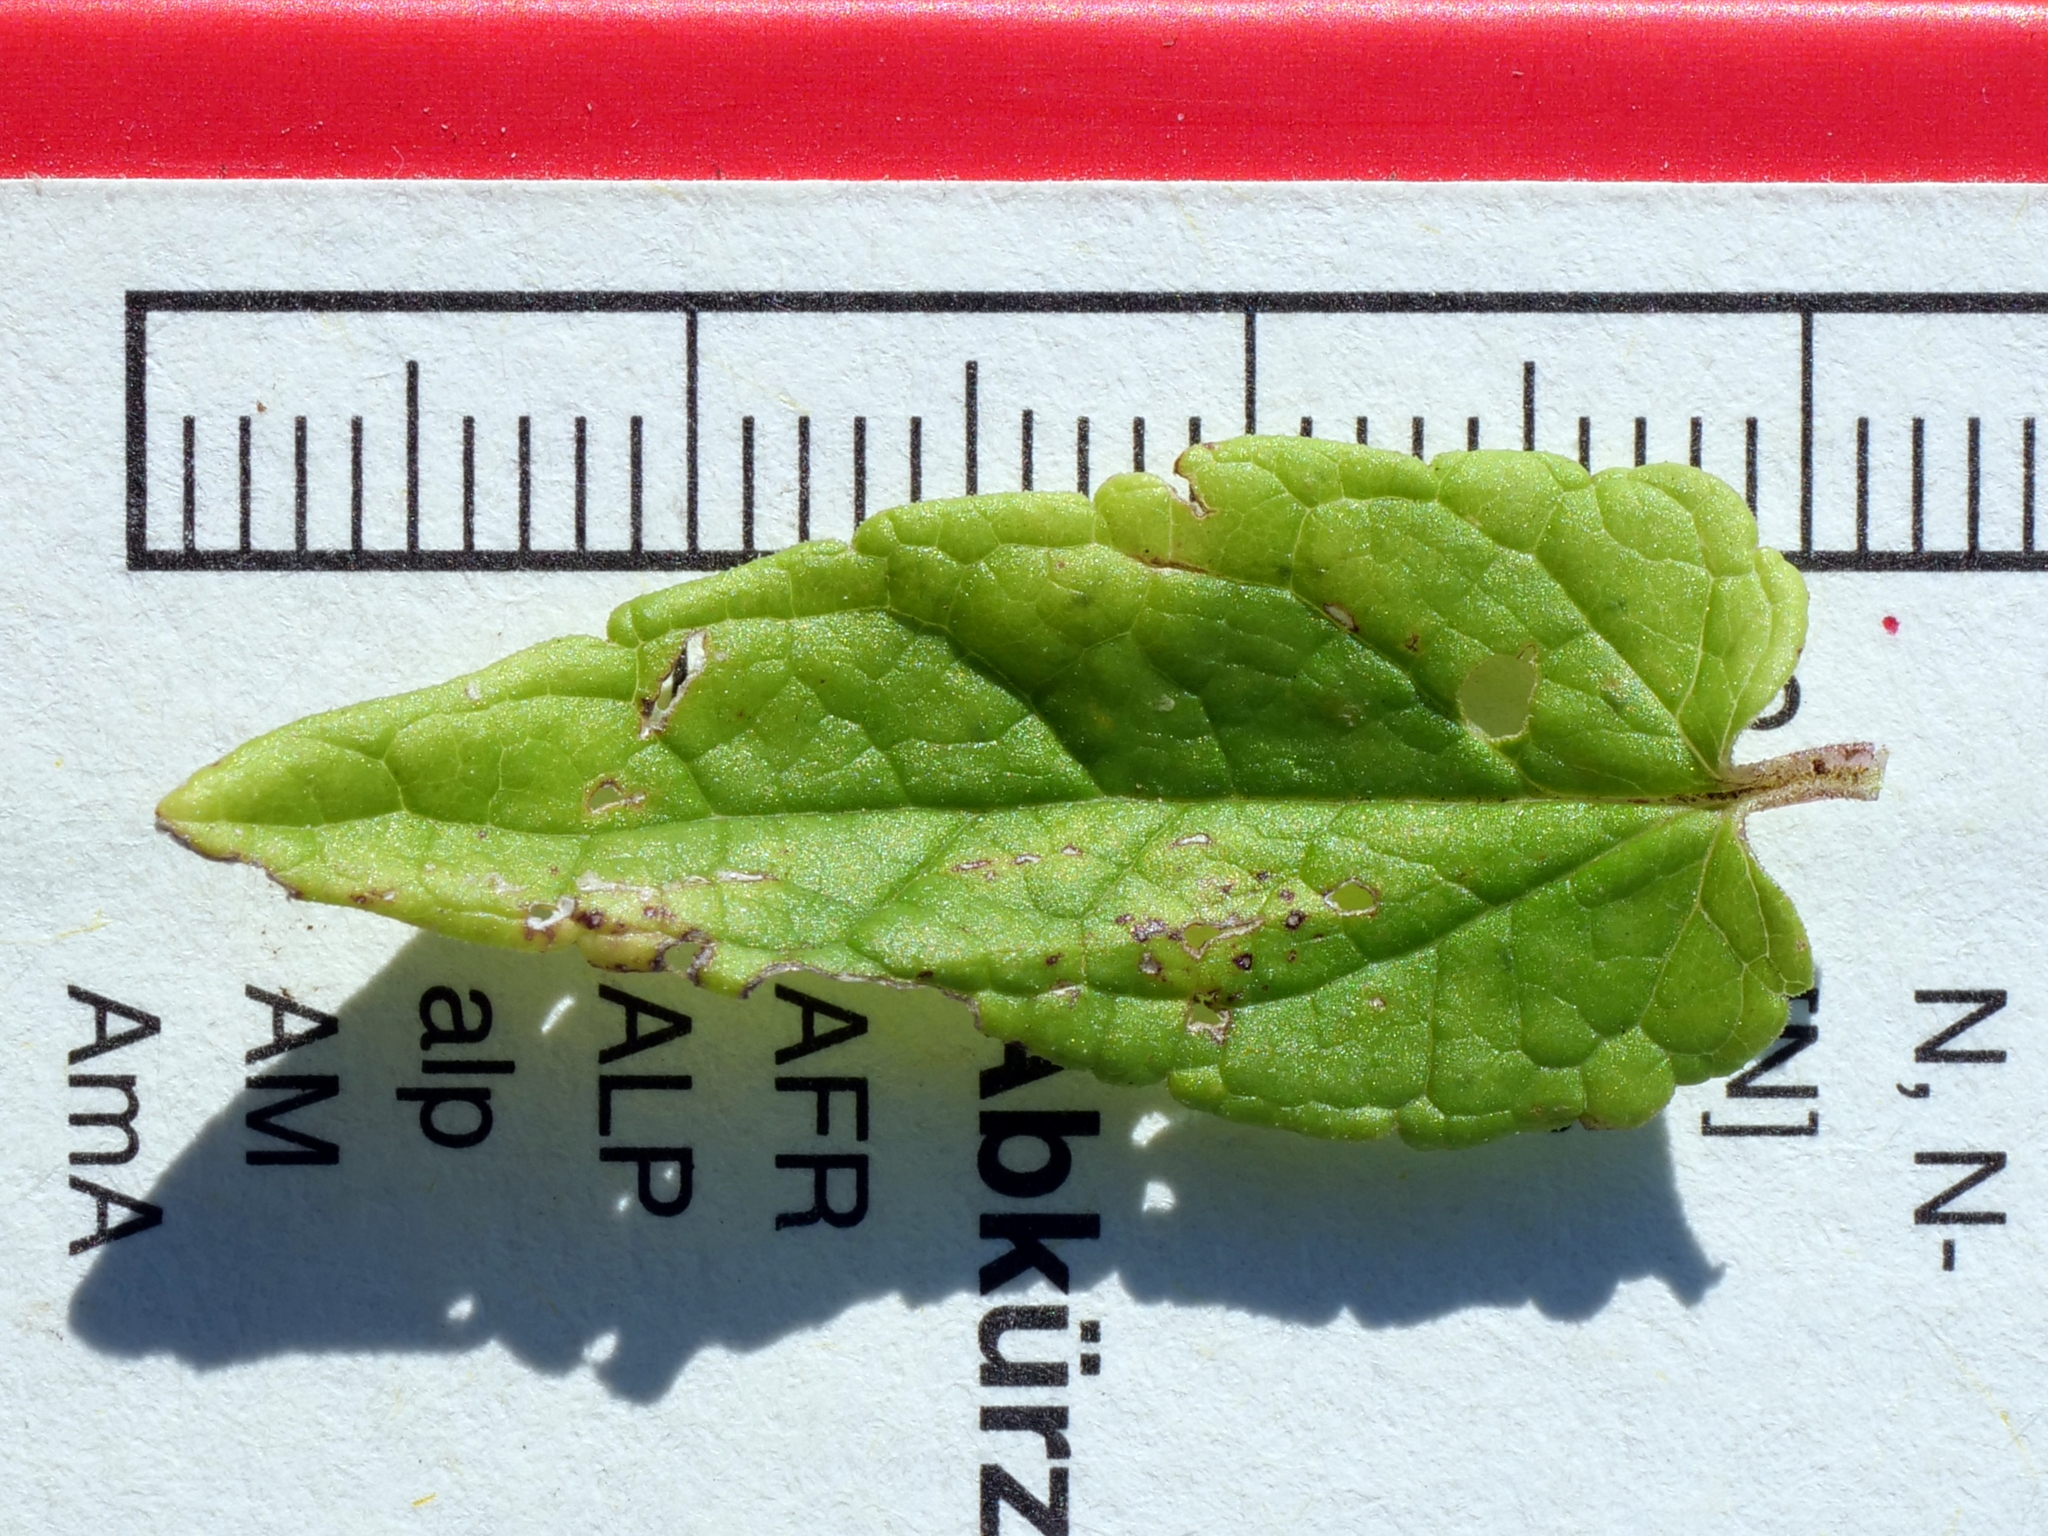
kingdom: Plantae
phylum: Tracheophyta
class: Magnoliopsida
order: Lamiales
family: Lamiaceae
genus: Scutellaria
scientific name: Scutellaria galericulata
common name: Skullcap
